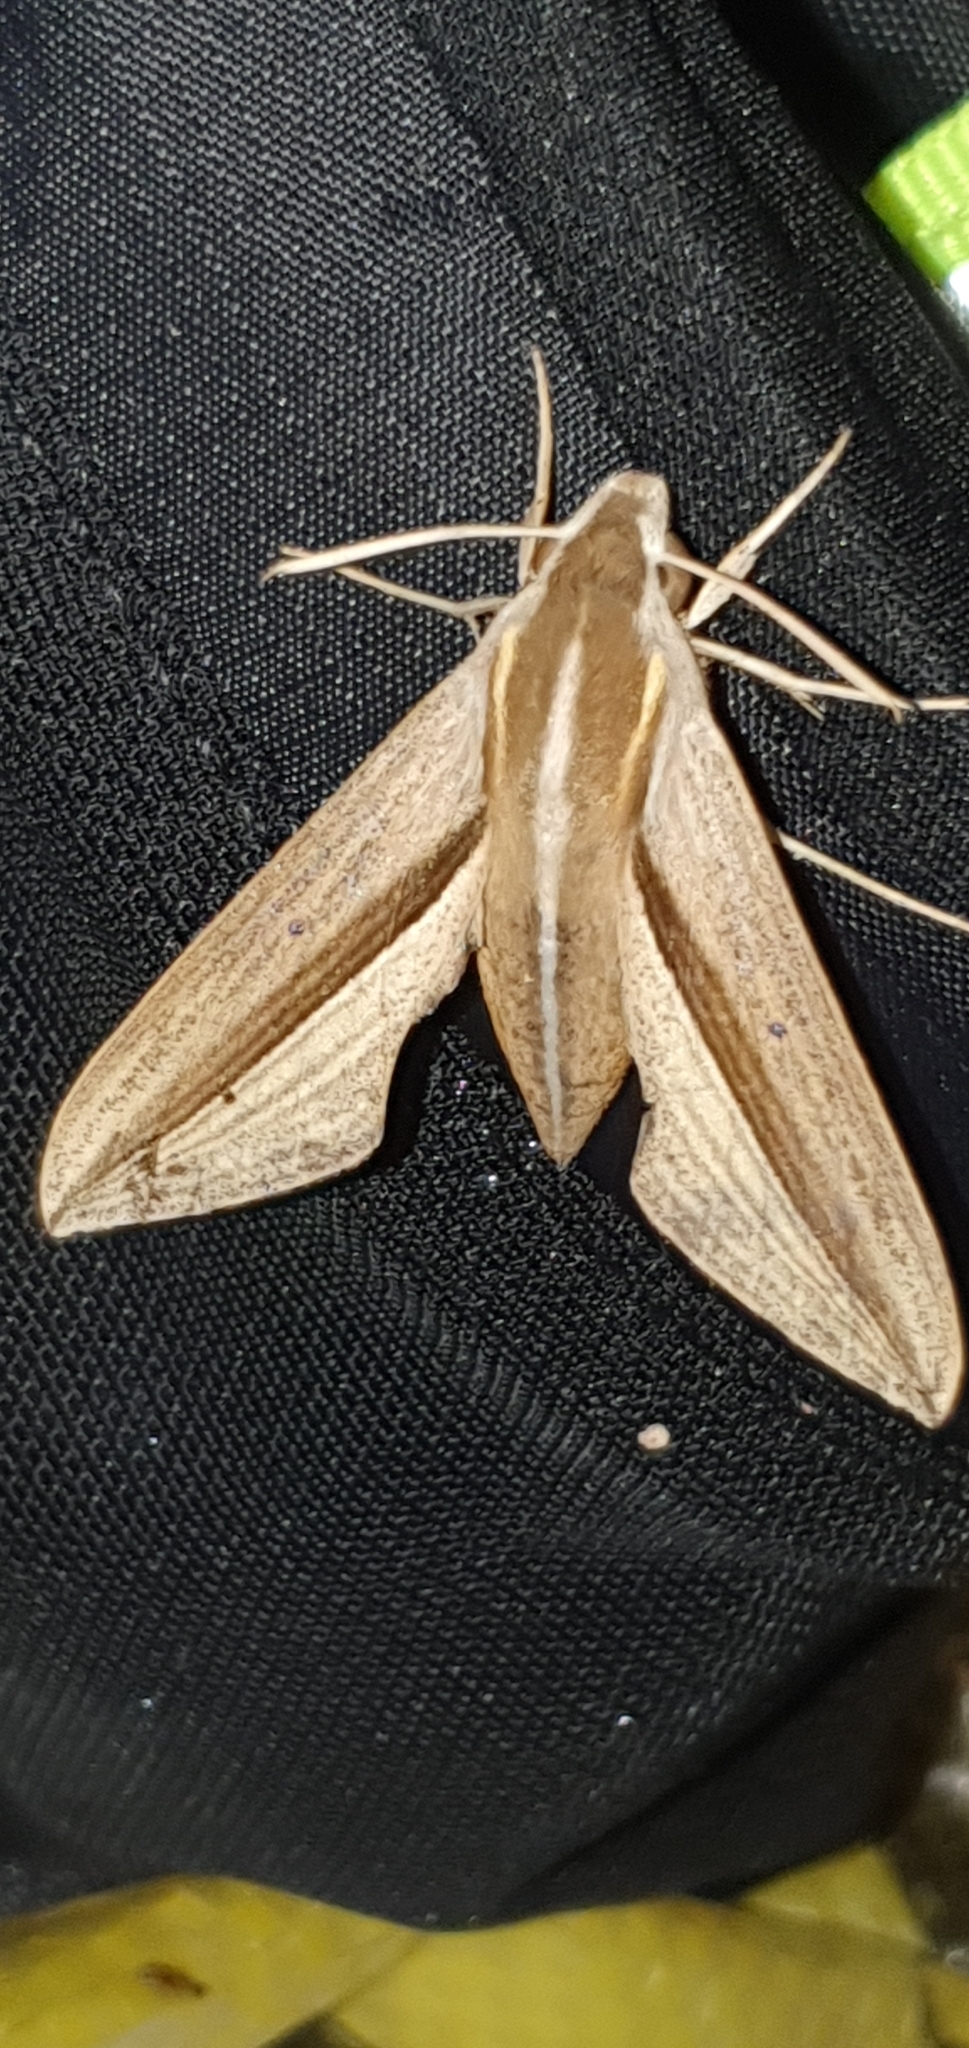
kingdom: Animalia
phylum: Arthropoda
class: Insecta
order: Lepidoptera
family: Sphingidae
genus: Theretra
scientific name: Theretra silhetensis
